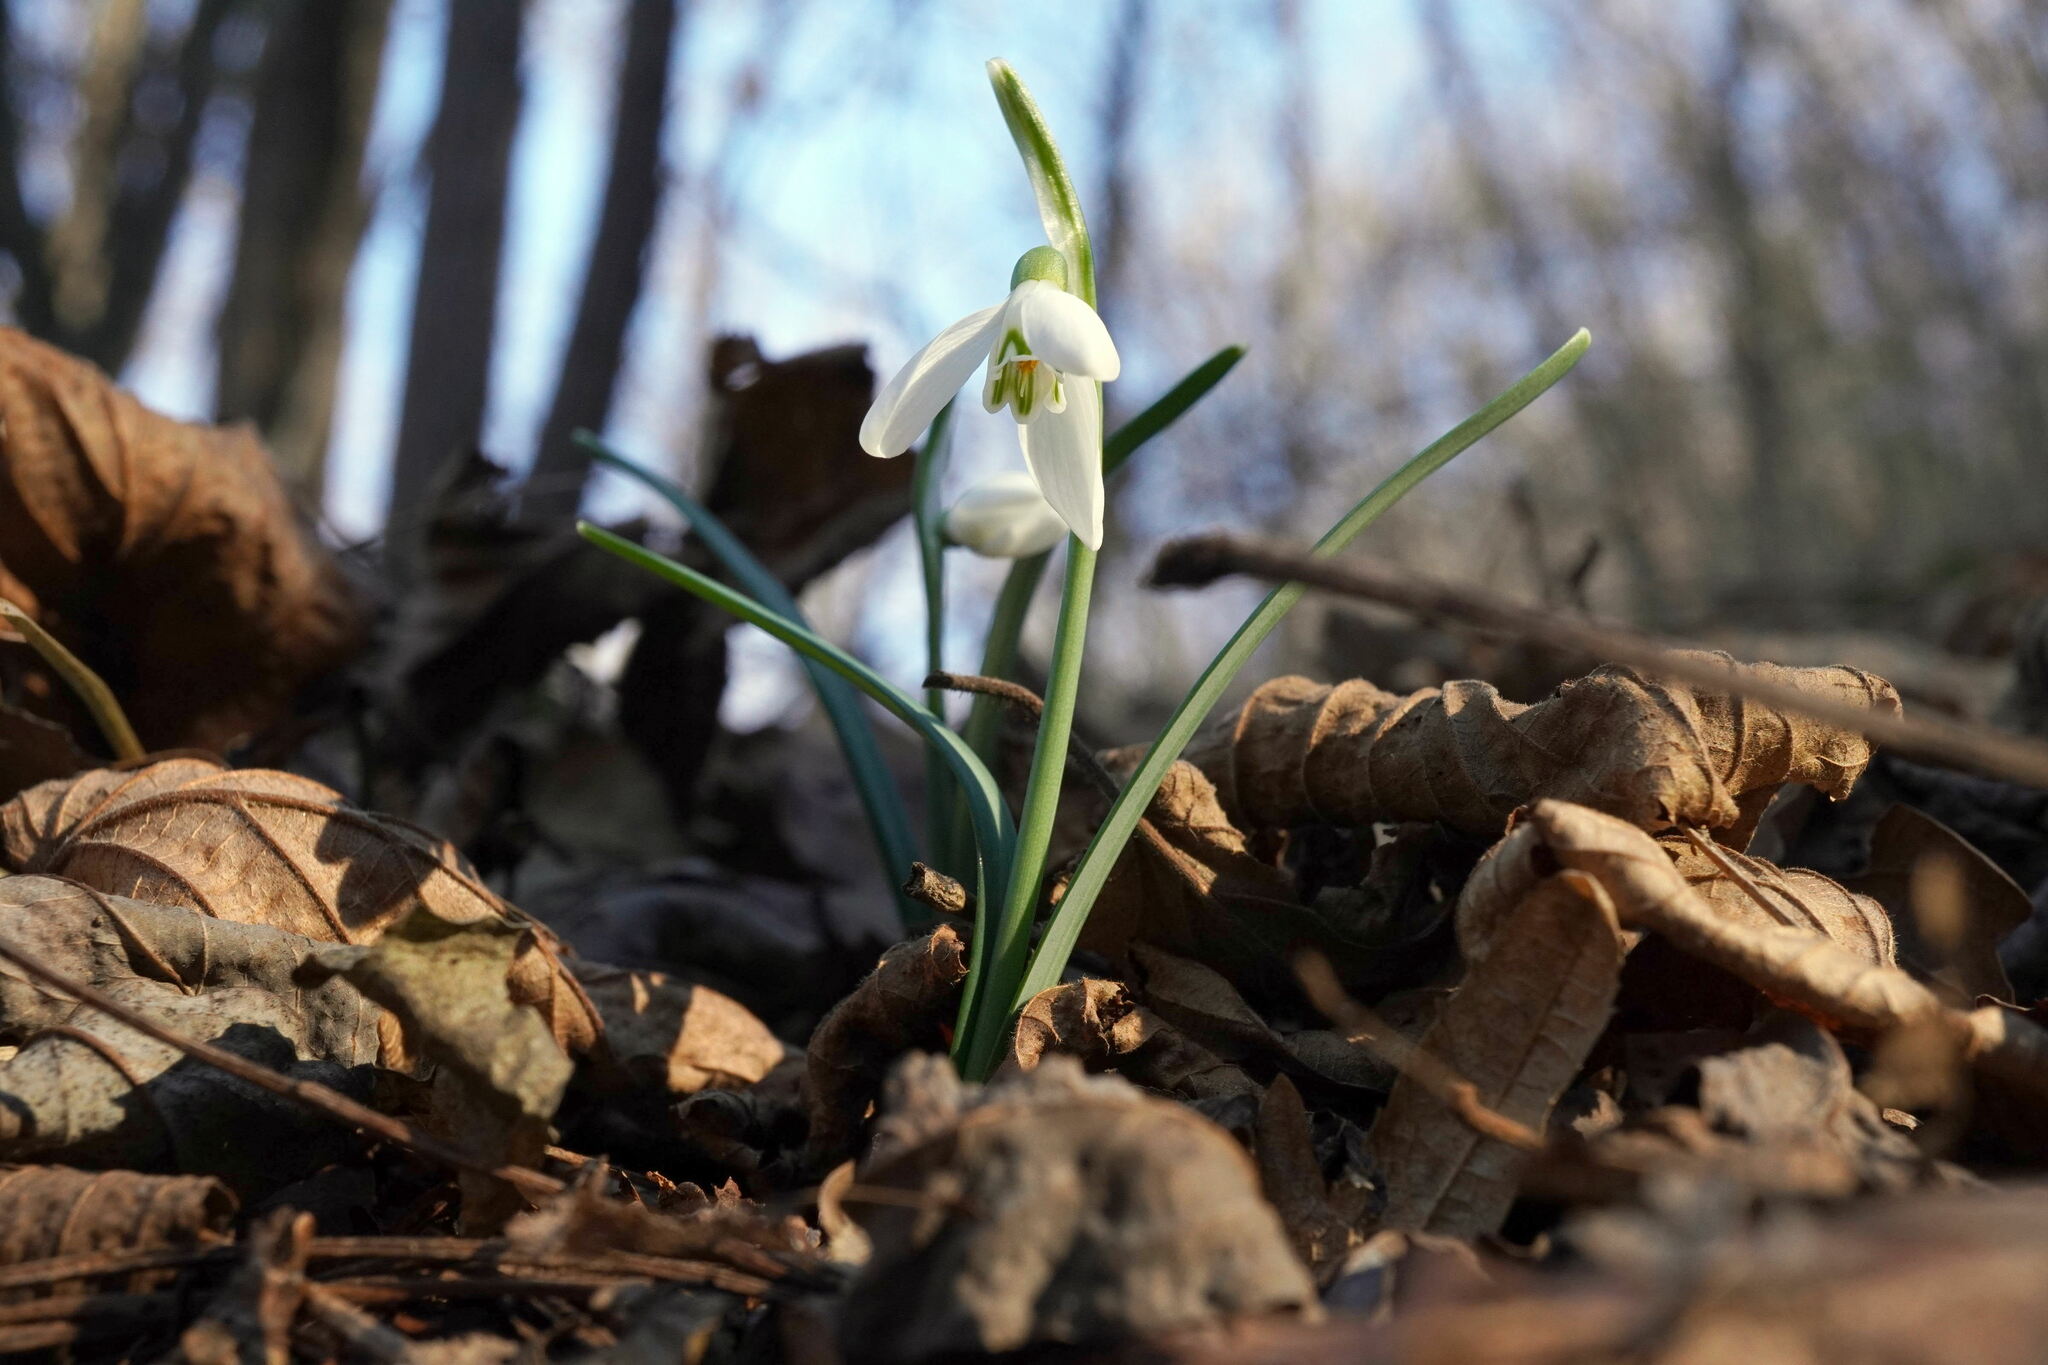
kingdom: Plantae
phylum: Tracheophyta
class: Liliopsida
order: Asparagales
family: Amaryllidaceae
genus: Galanthus
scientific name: Galanthus nivalis
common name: Snowdrop
